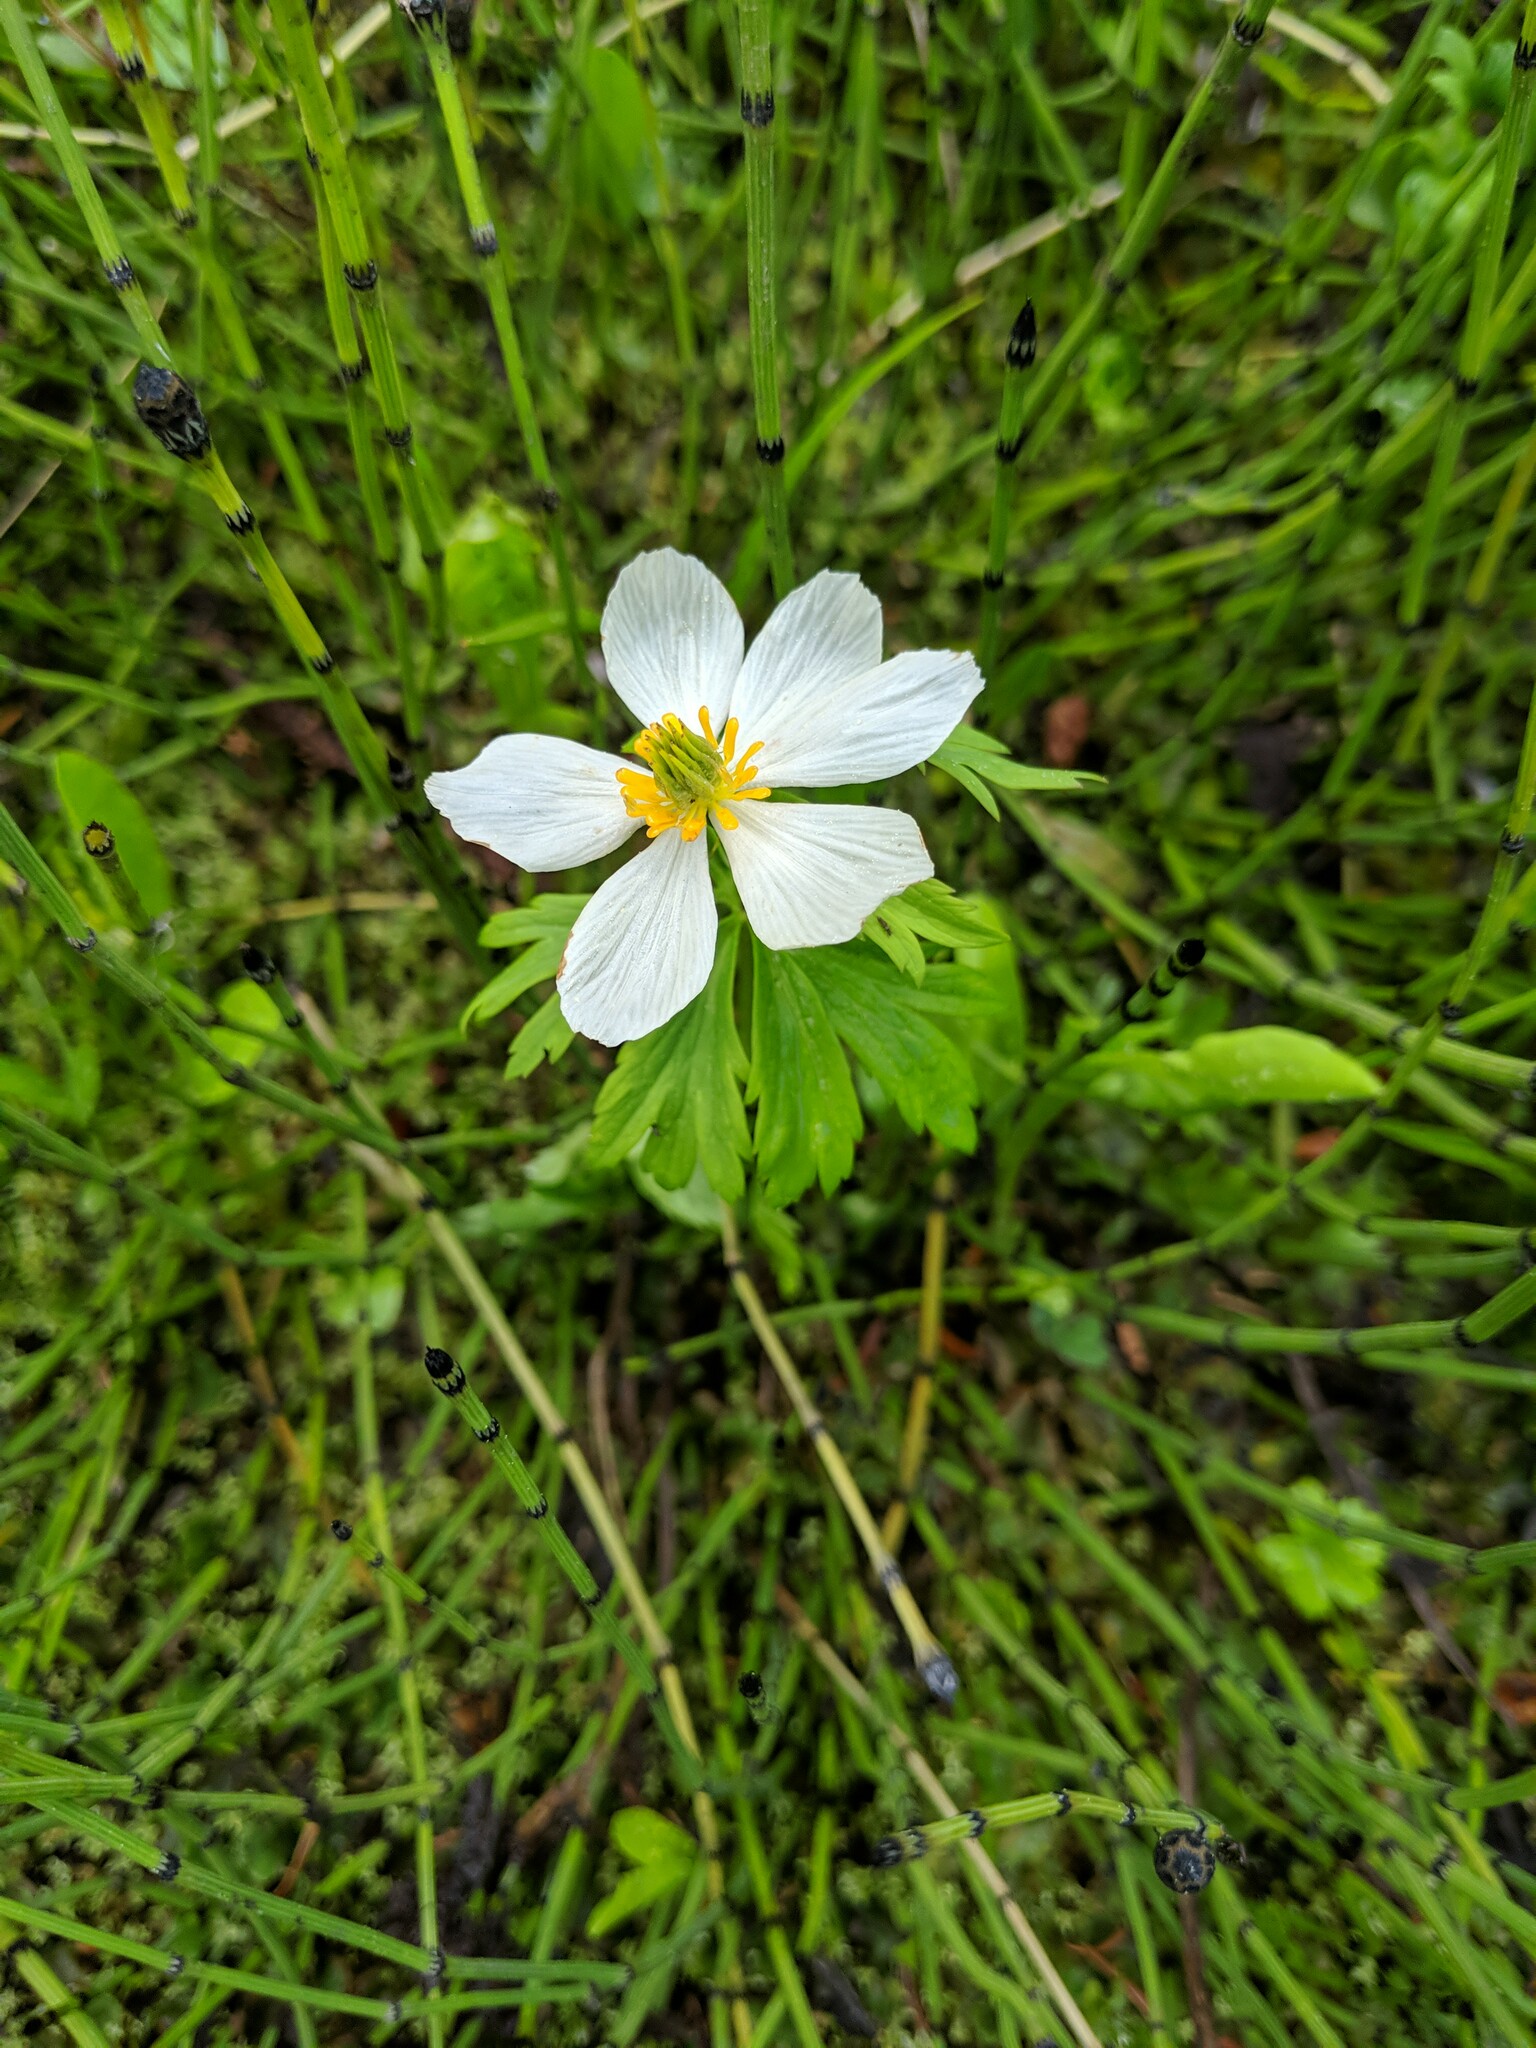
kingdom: Plantae
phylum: Tracheophyta
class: Magnoliopsida
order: Ranunculales
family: Ranunculaceae
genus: Trollius
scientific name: Trollius laxus
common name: American globeflower
